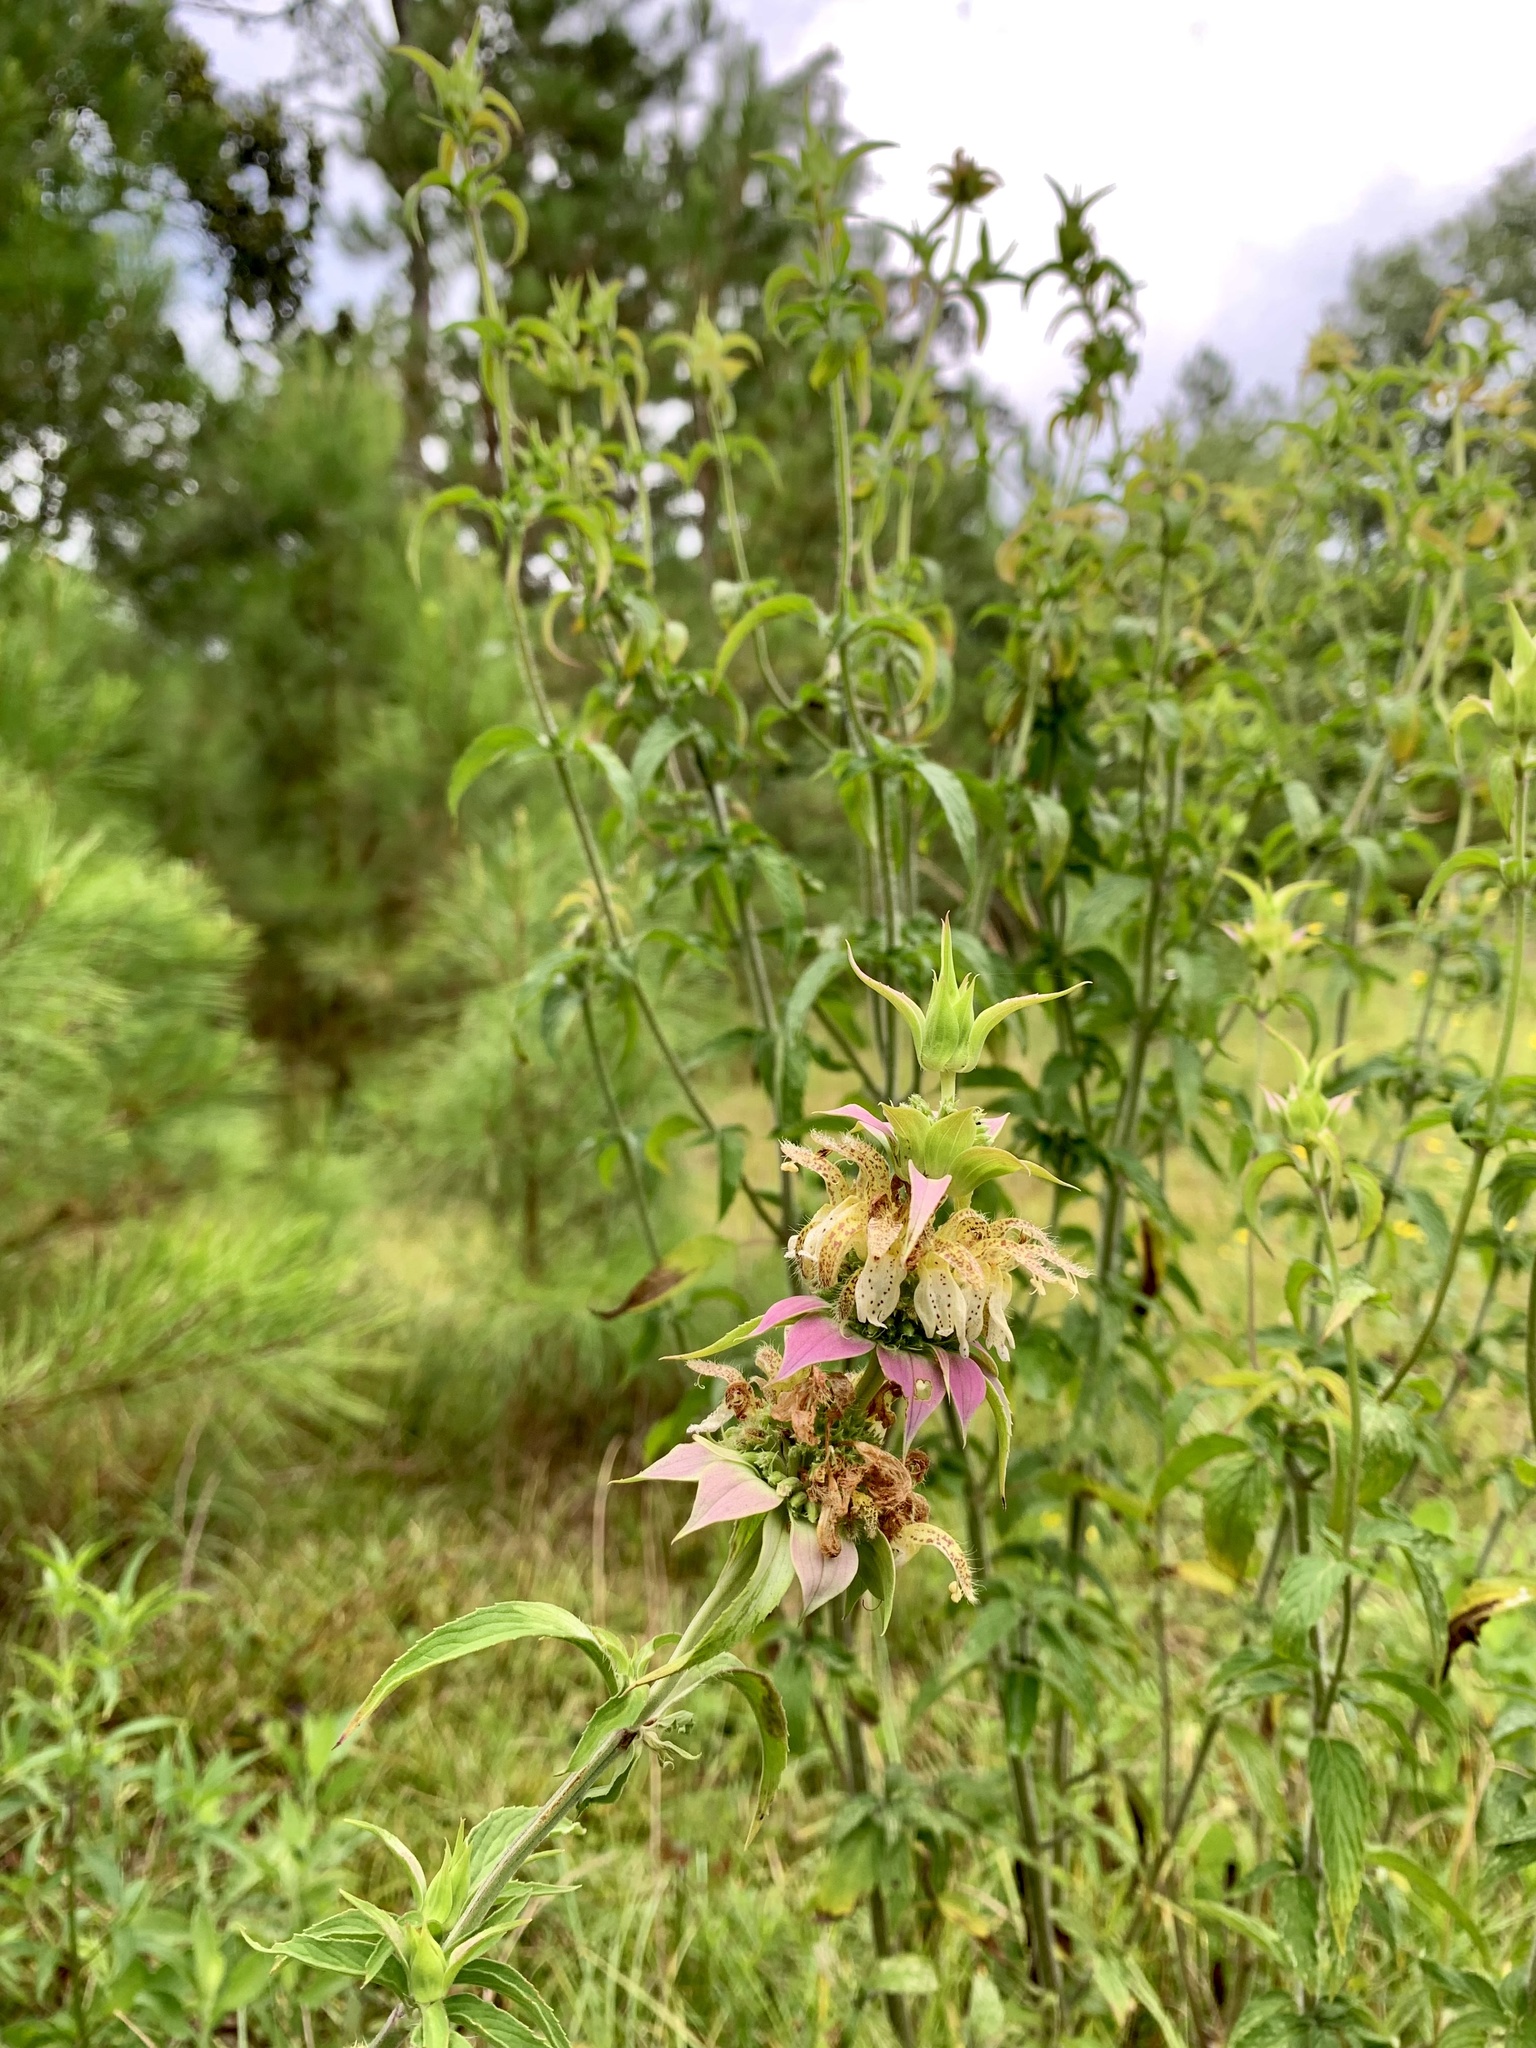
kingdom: Plantae
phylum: Tracheophyta
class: Magnoliopsida
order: Lamiales
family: Lamiaceae
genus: Monarda
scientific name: Monarda punctata
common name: Dotted monarda
